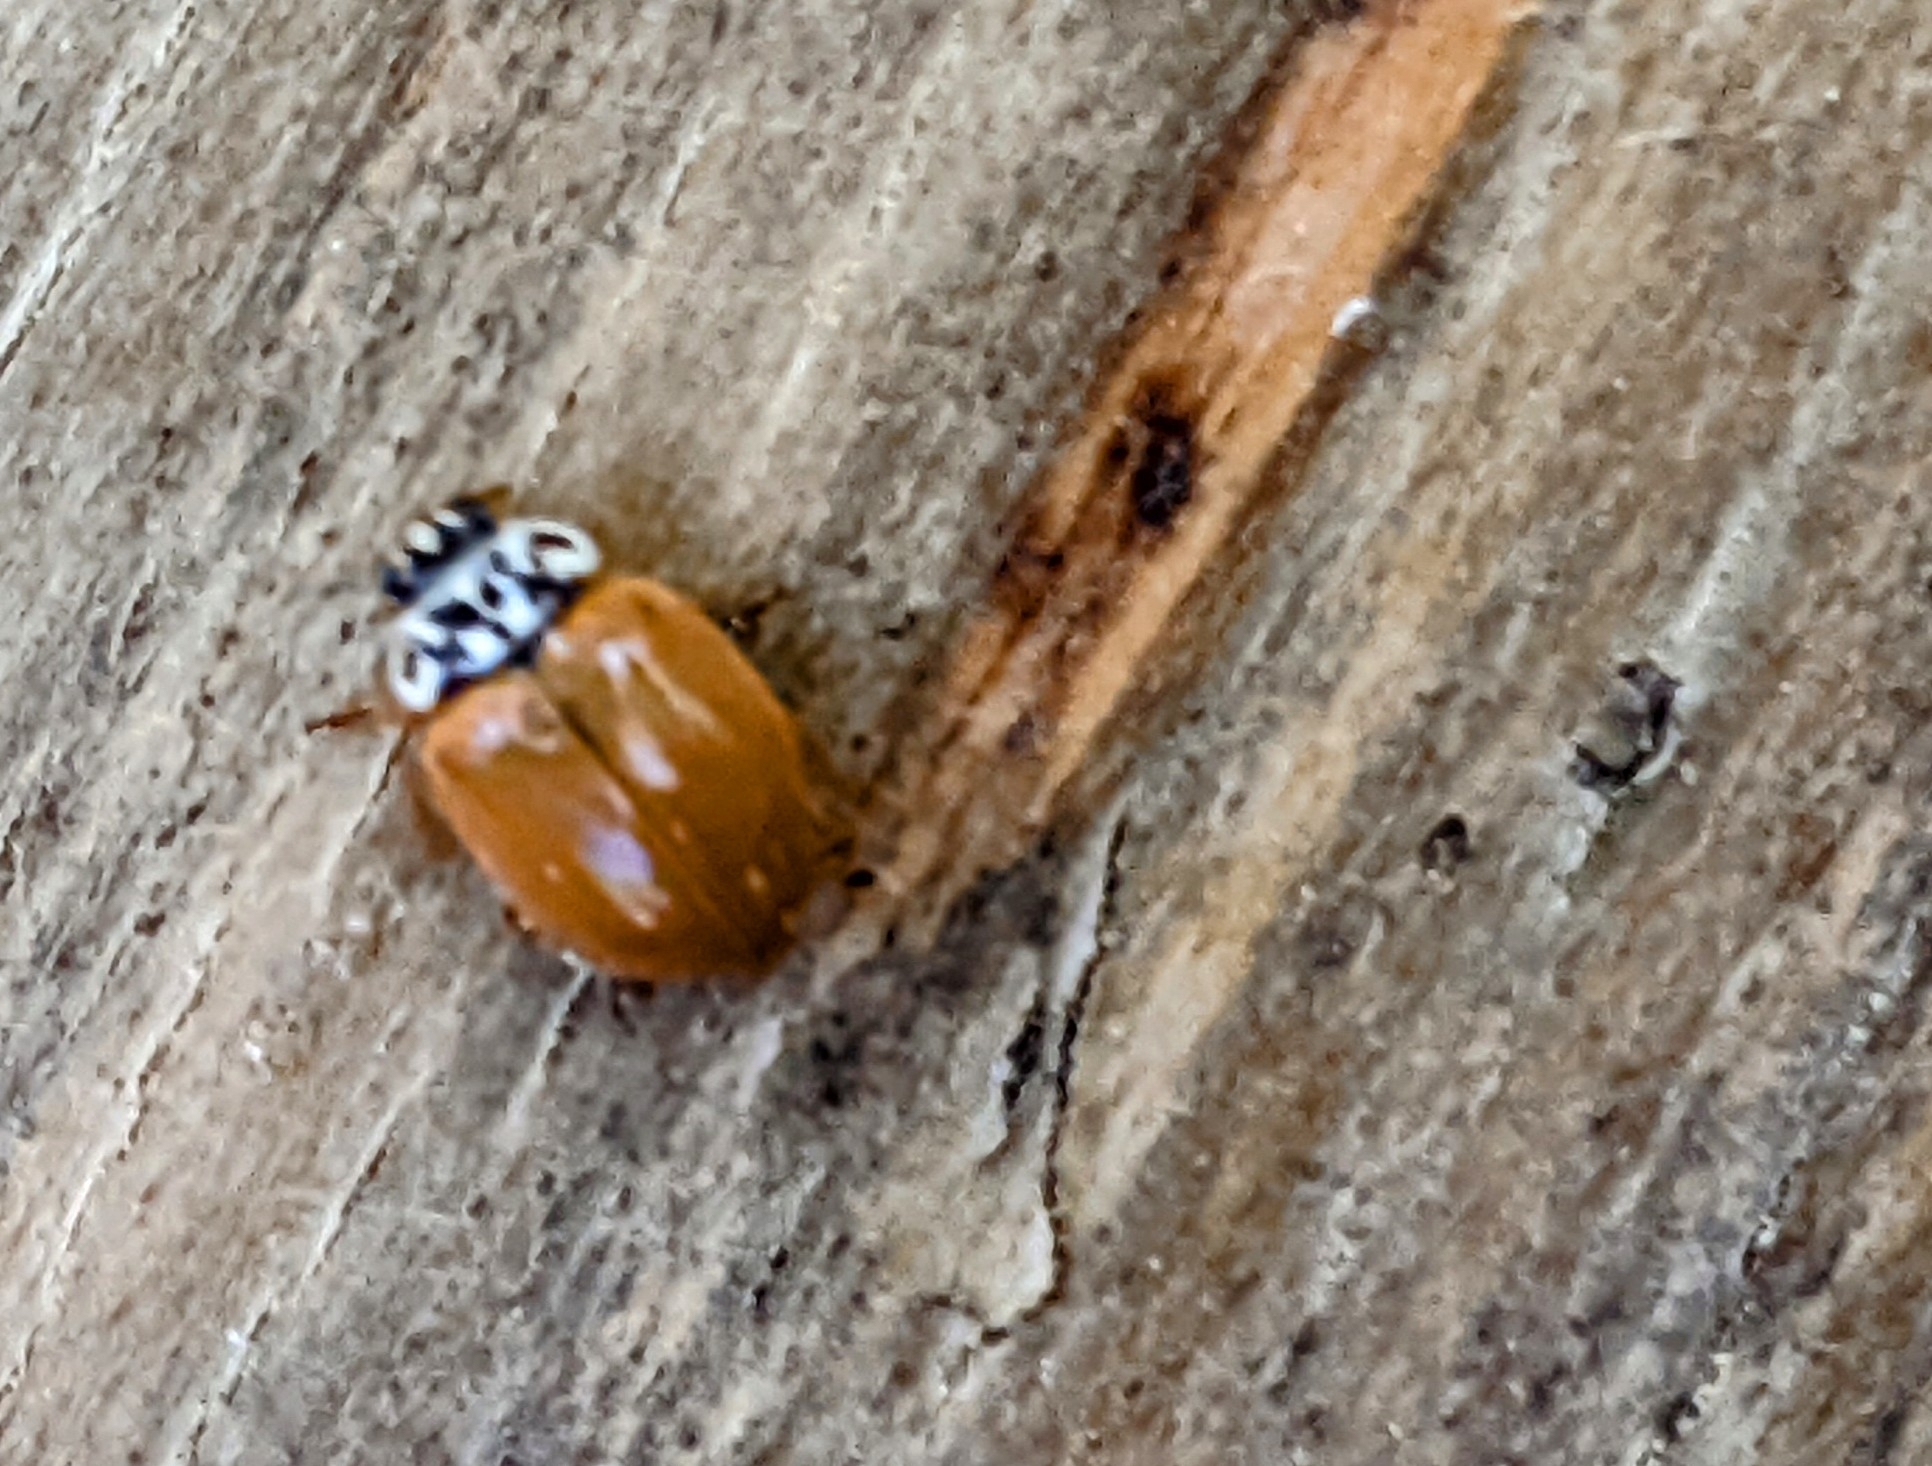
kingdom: Animalia
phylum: Arthropoda
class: Insecta
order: Coleoptera
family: Coccinellidae
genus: Mulsantina
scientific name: Mulsantina picta
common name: Painted ladybird
